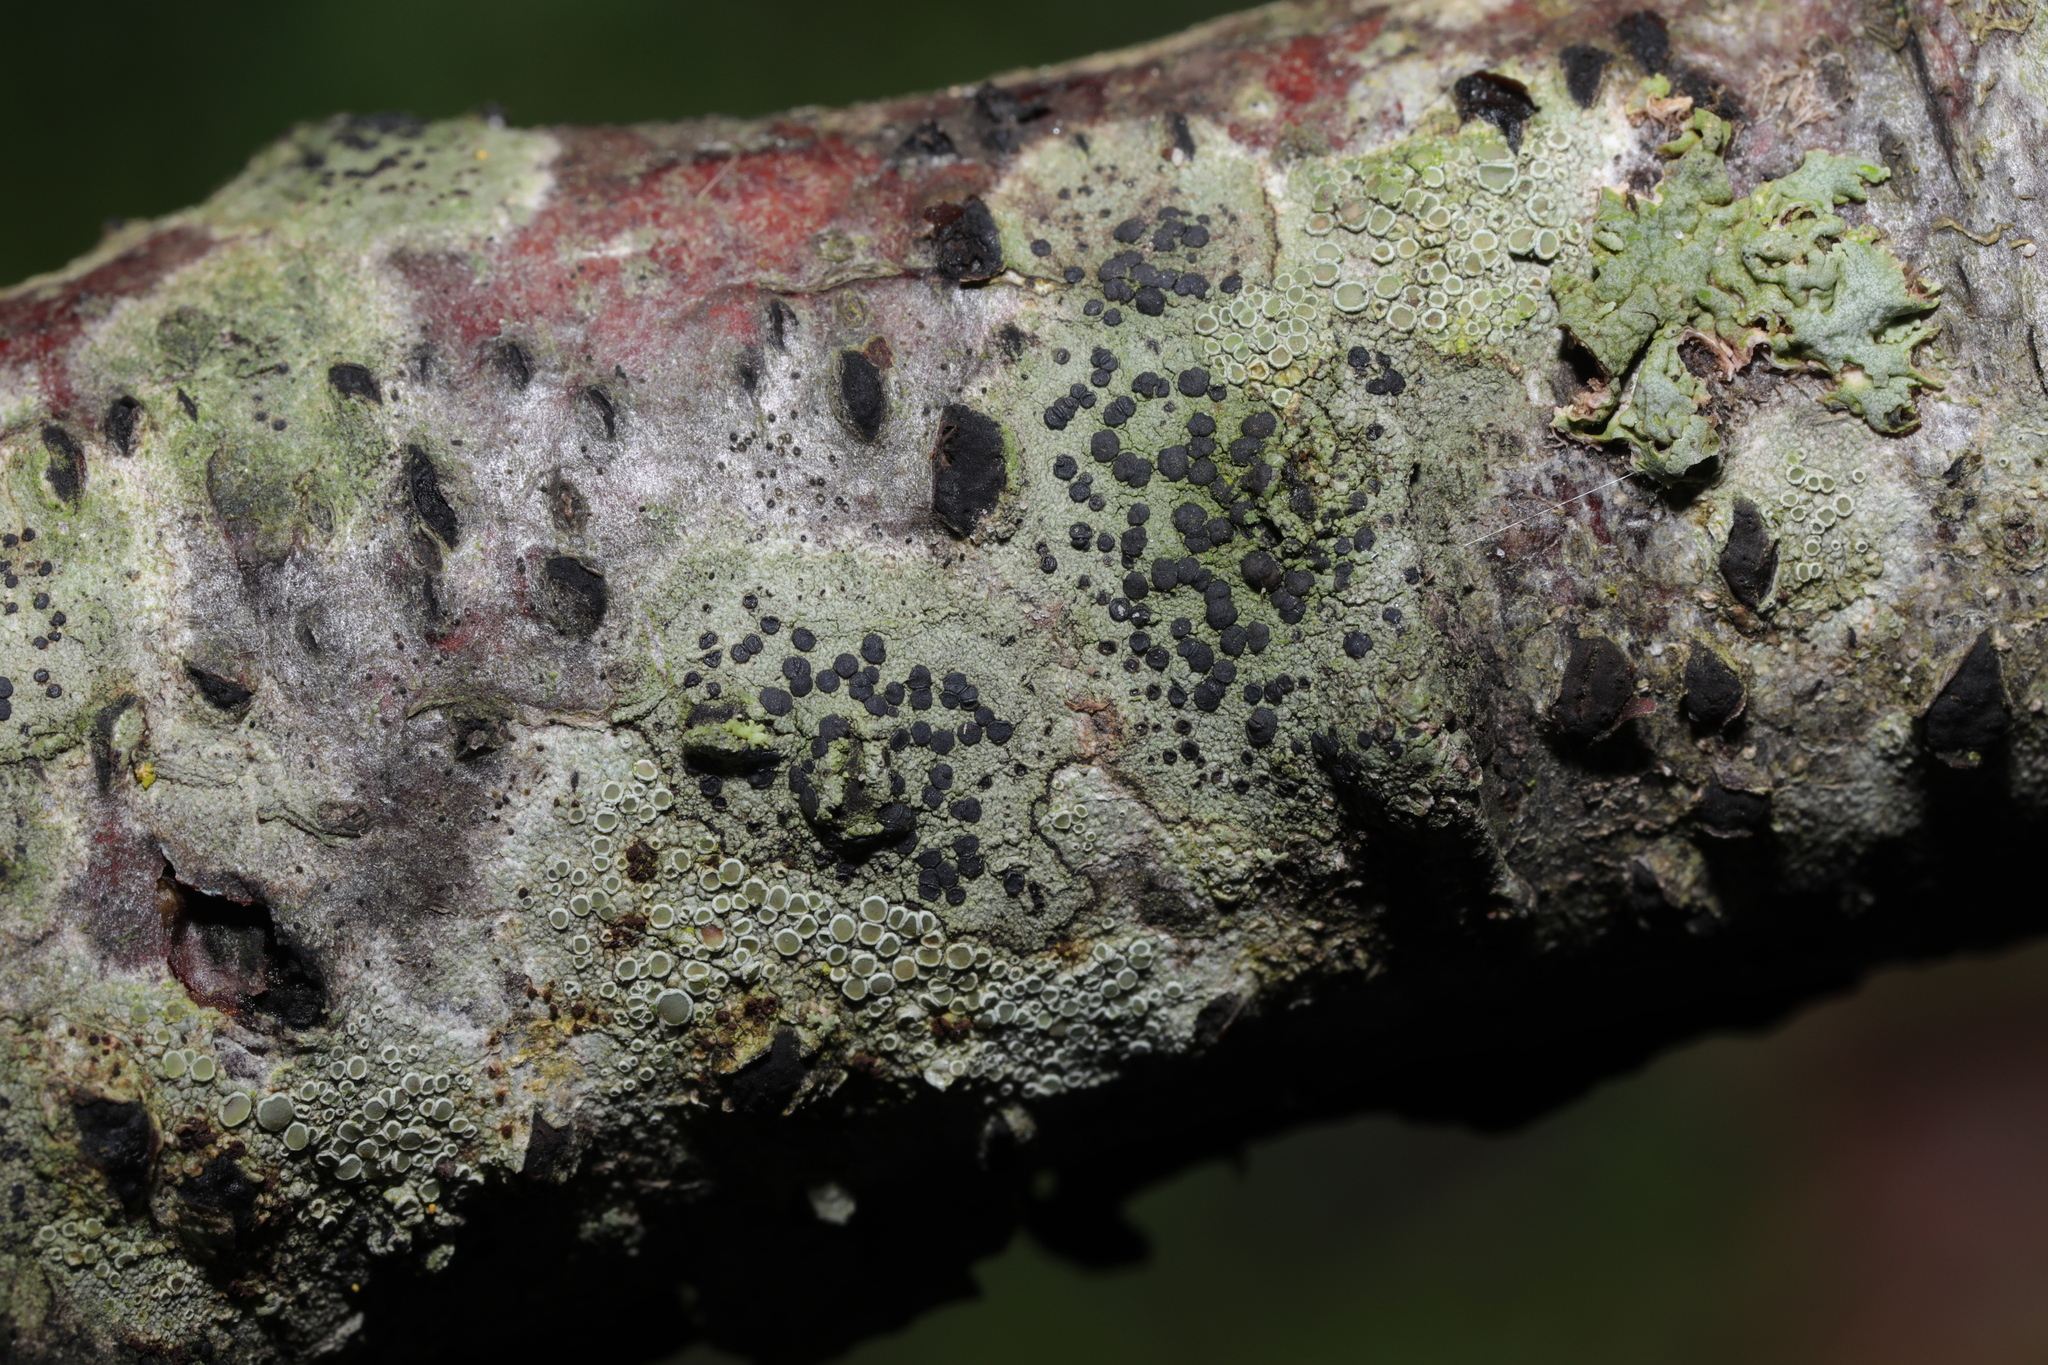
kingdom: Fungi
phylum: Ascomycota
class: Lecanoromycetes
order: Lecanorales
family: Lecanoraceae
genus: Lecidella
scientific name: Lecidella elaeochroma
